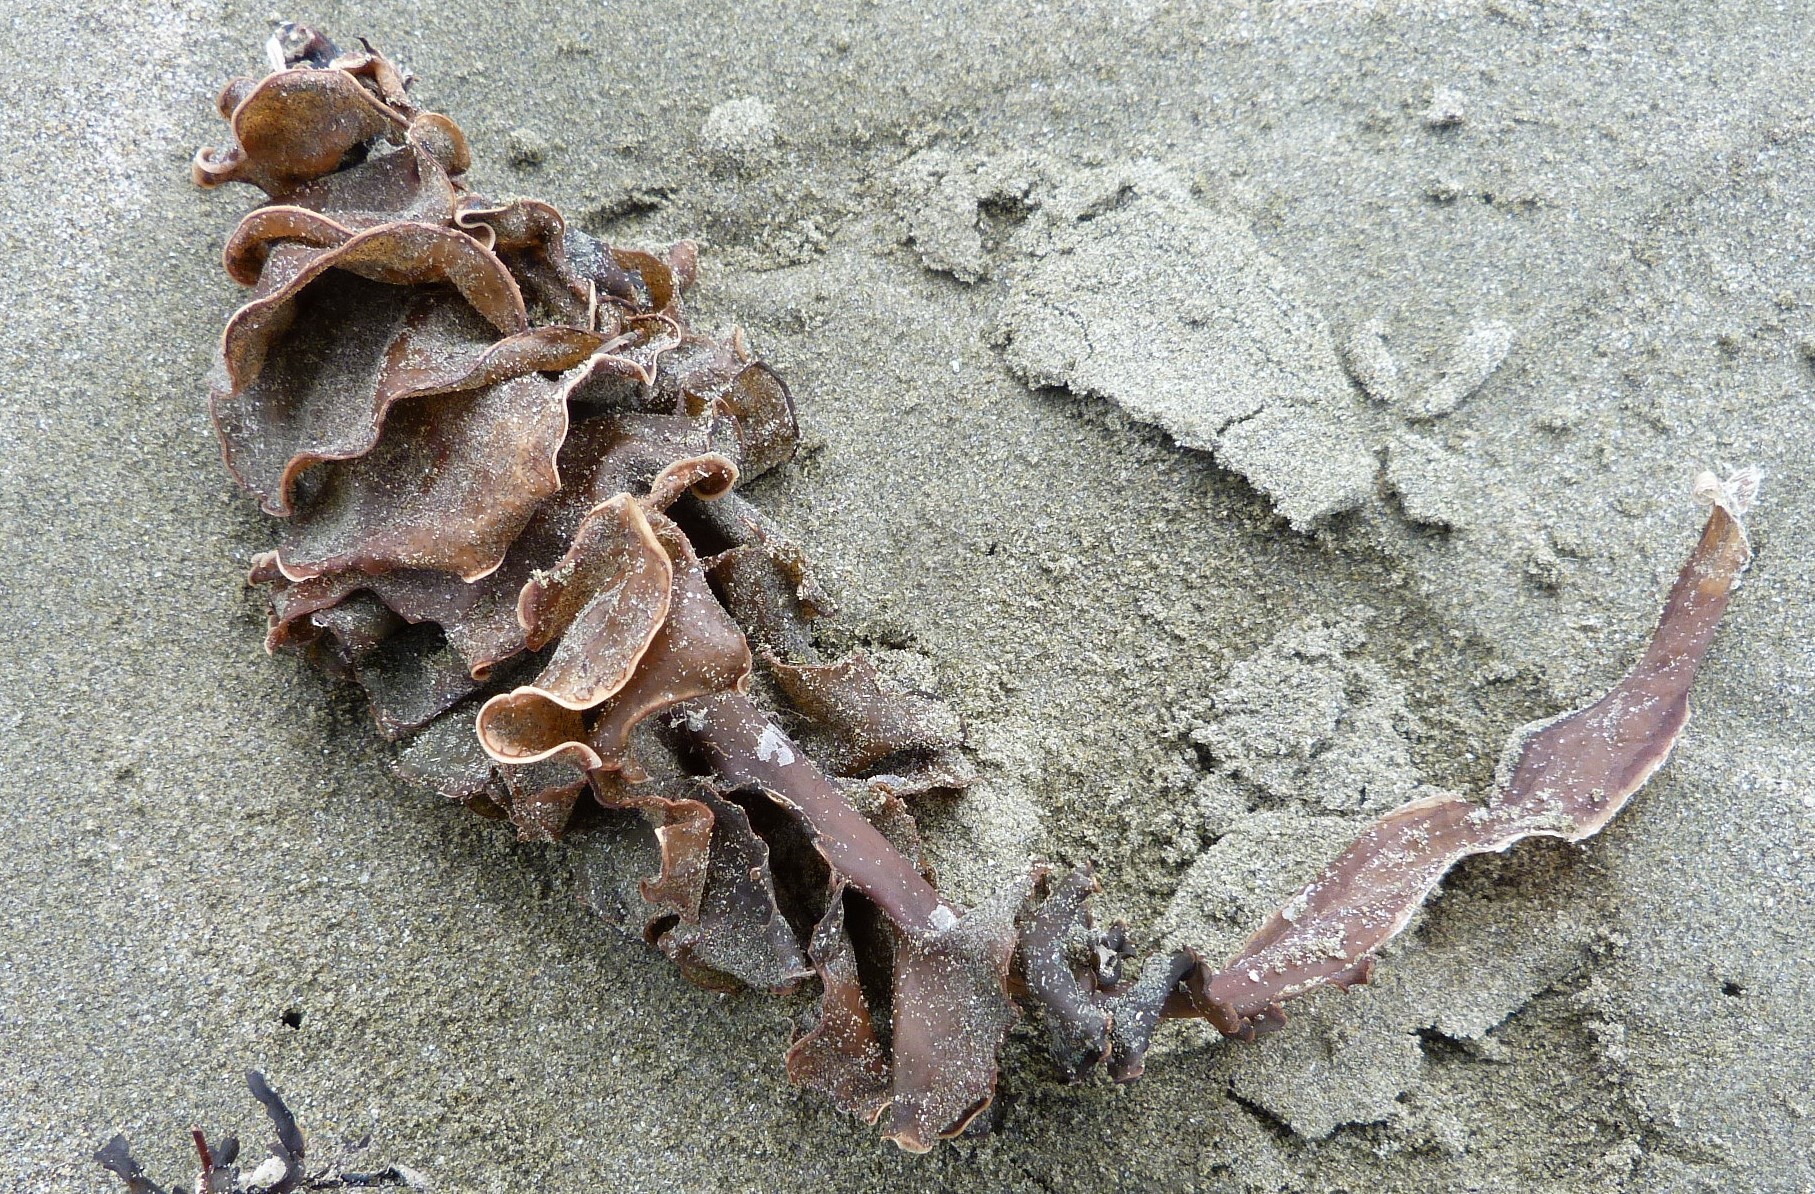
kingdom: Chromista
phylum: Ochrophyta
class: Phaeophyceae
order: Laminariales
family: Alariaceae
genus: Undaria
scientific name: Undaria pinnatifida
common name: Asian kelp
